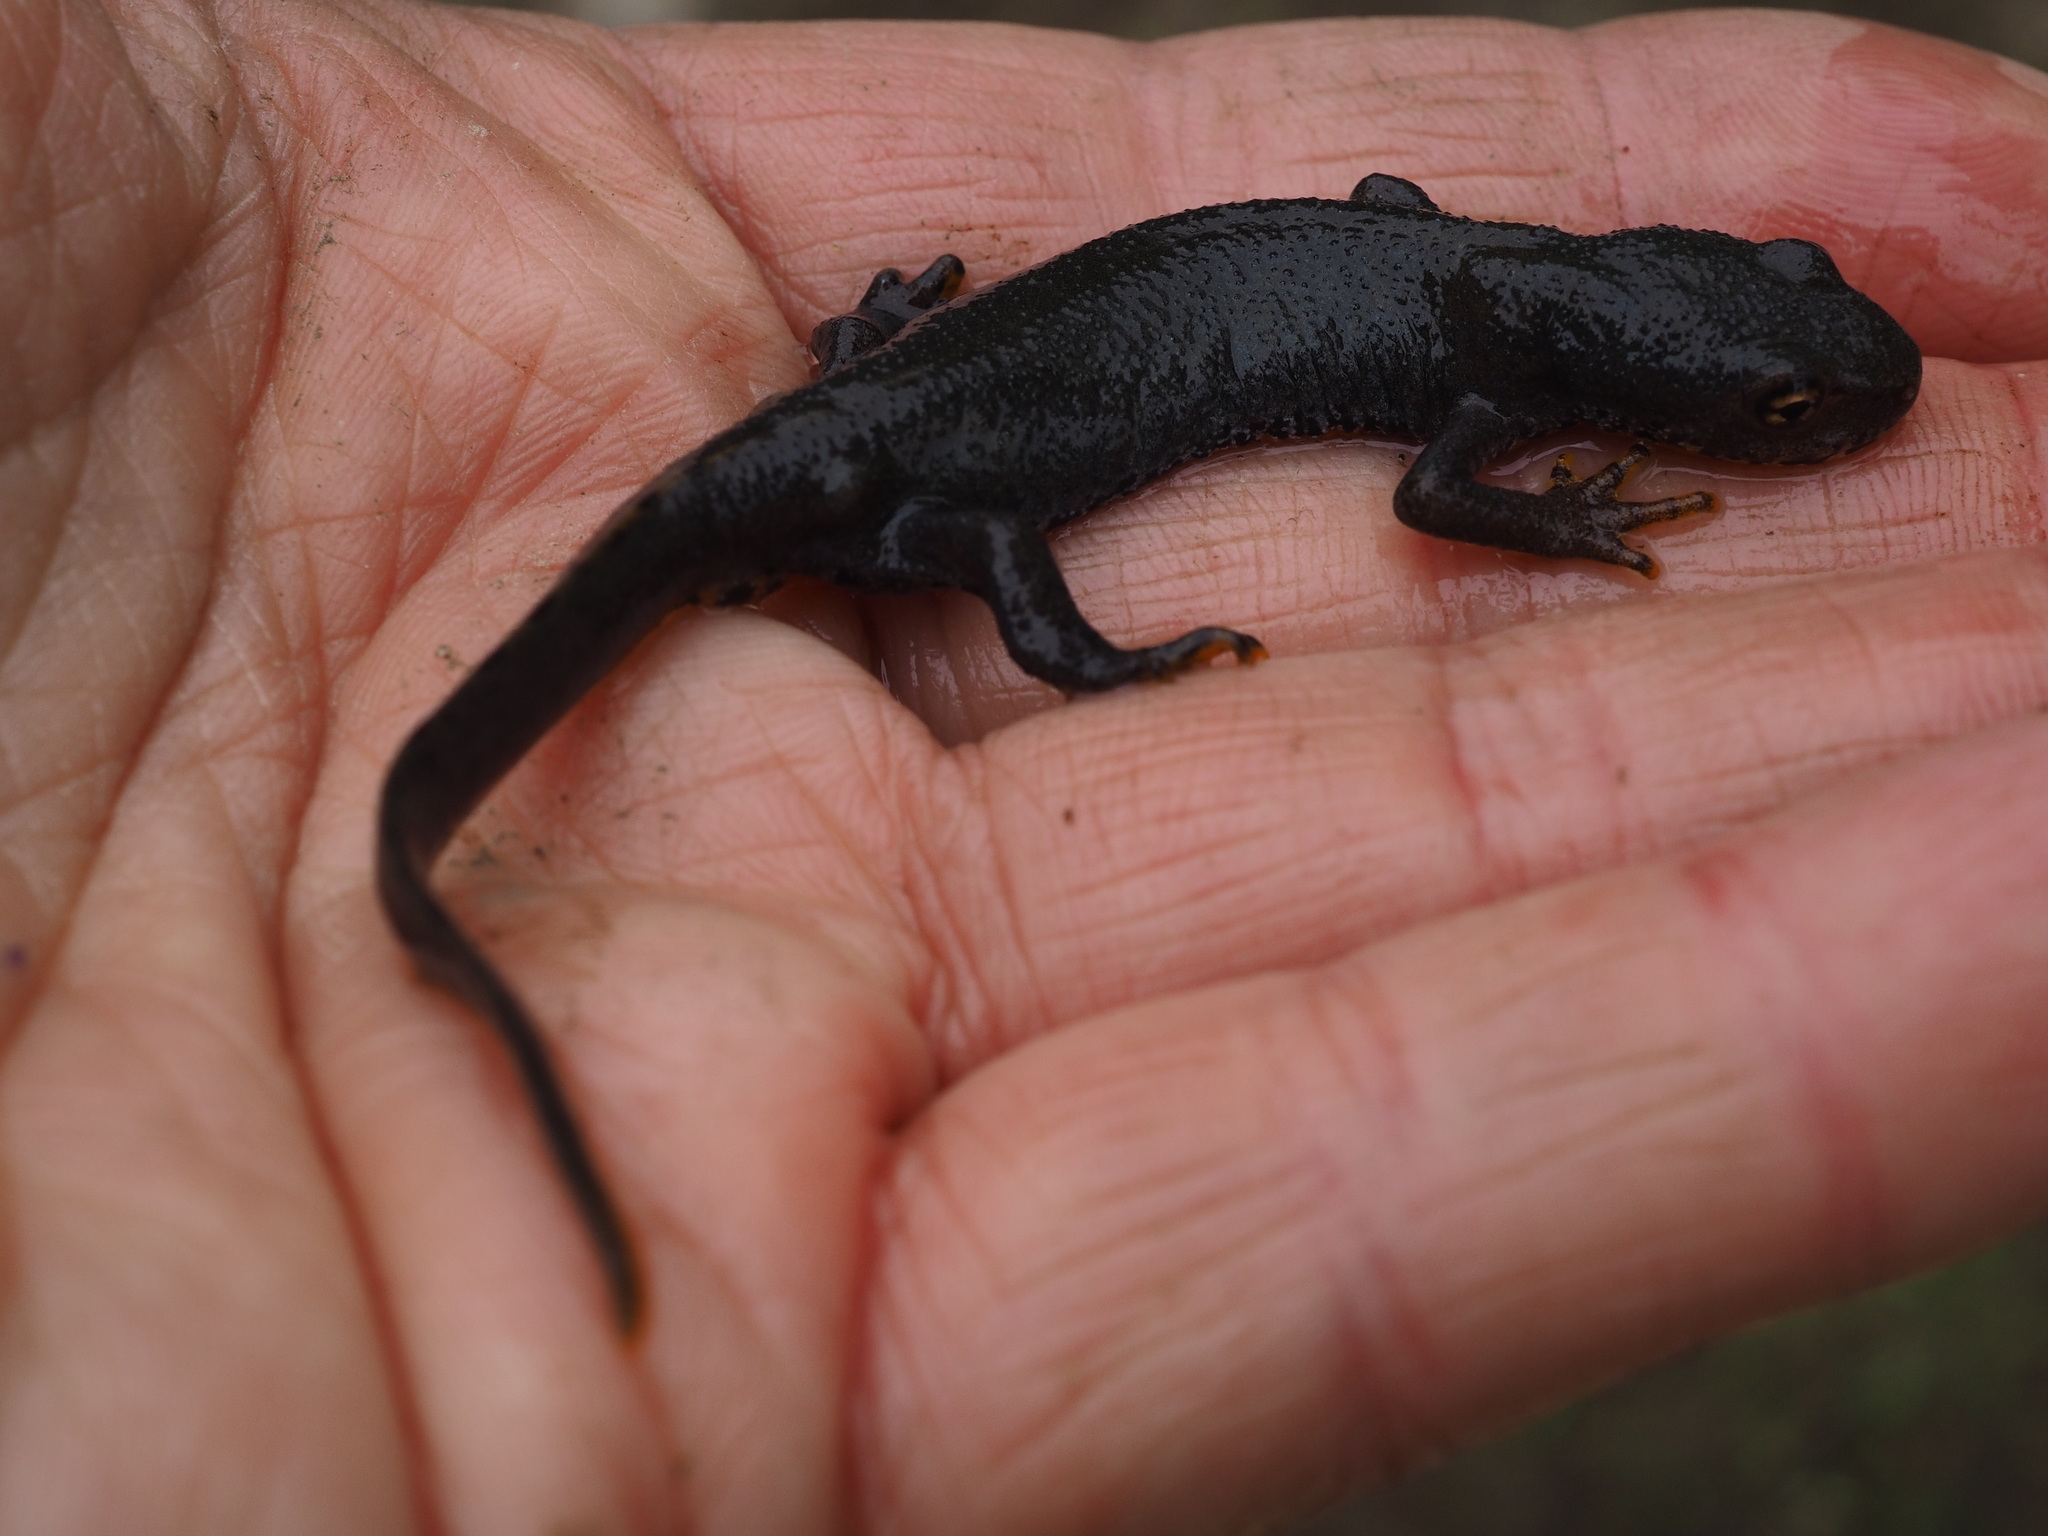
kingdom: Animalia
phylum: Chordata
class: Amphibia
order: Caudata
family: Salamandridae
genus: Ichthyosaura
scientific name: Ichthyosaura alpestris
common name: Alpine newt
